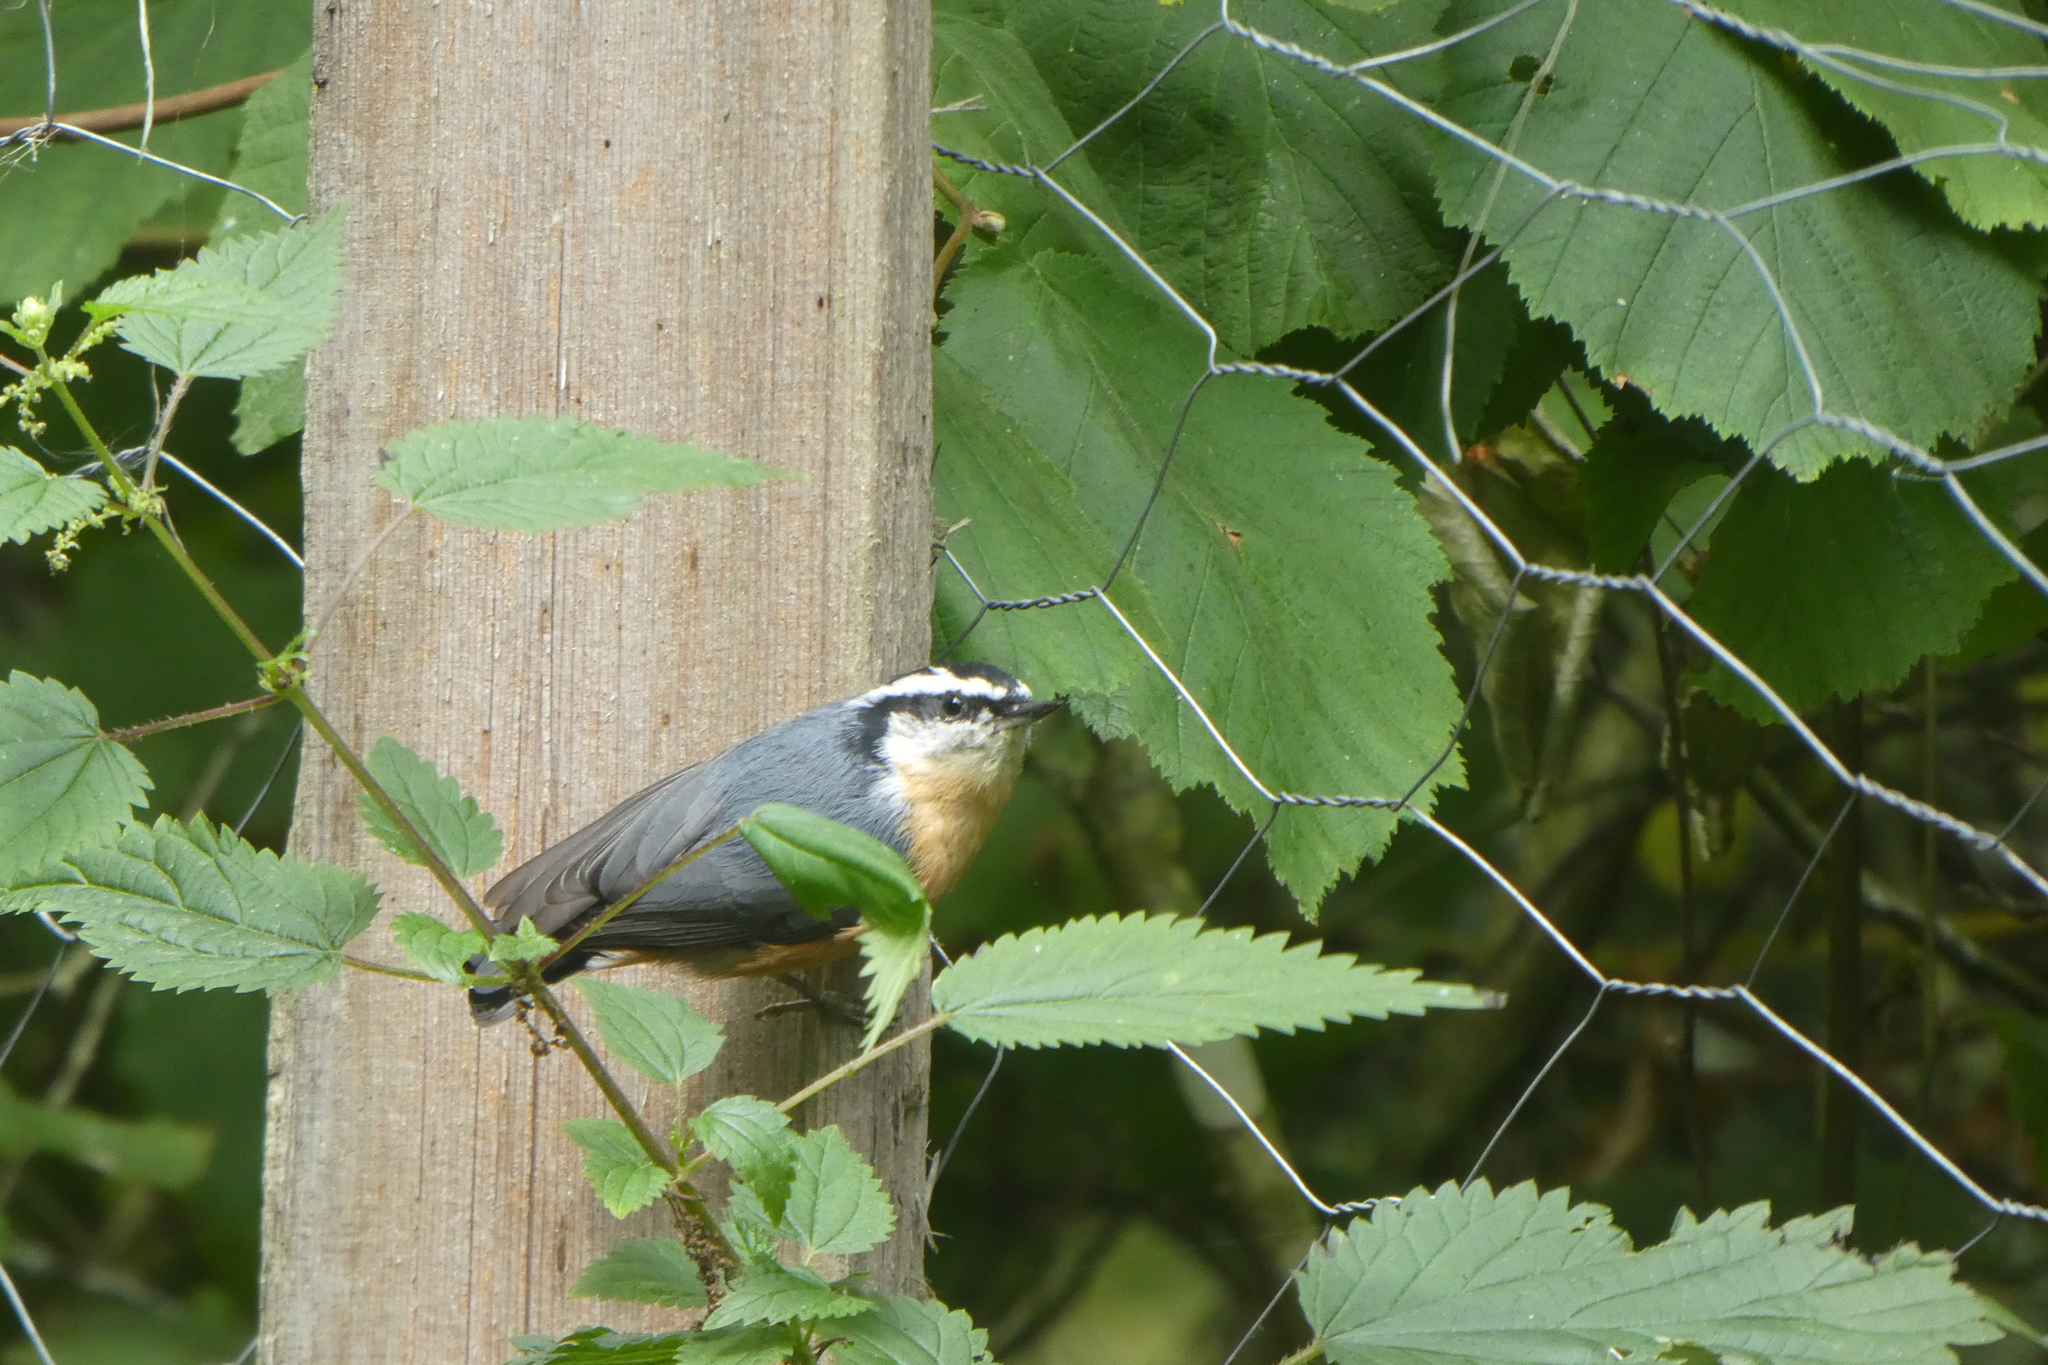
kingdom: Animalia
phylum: Chordata
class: Aves
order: Passeriformes
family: Sittidae
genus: Sitta
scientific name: Sitta canadensis
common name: Red-breasted nuthatch
